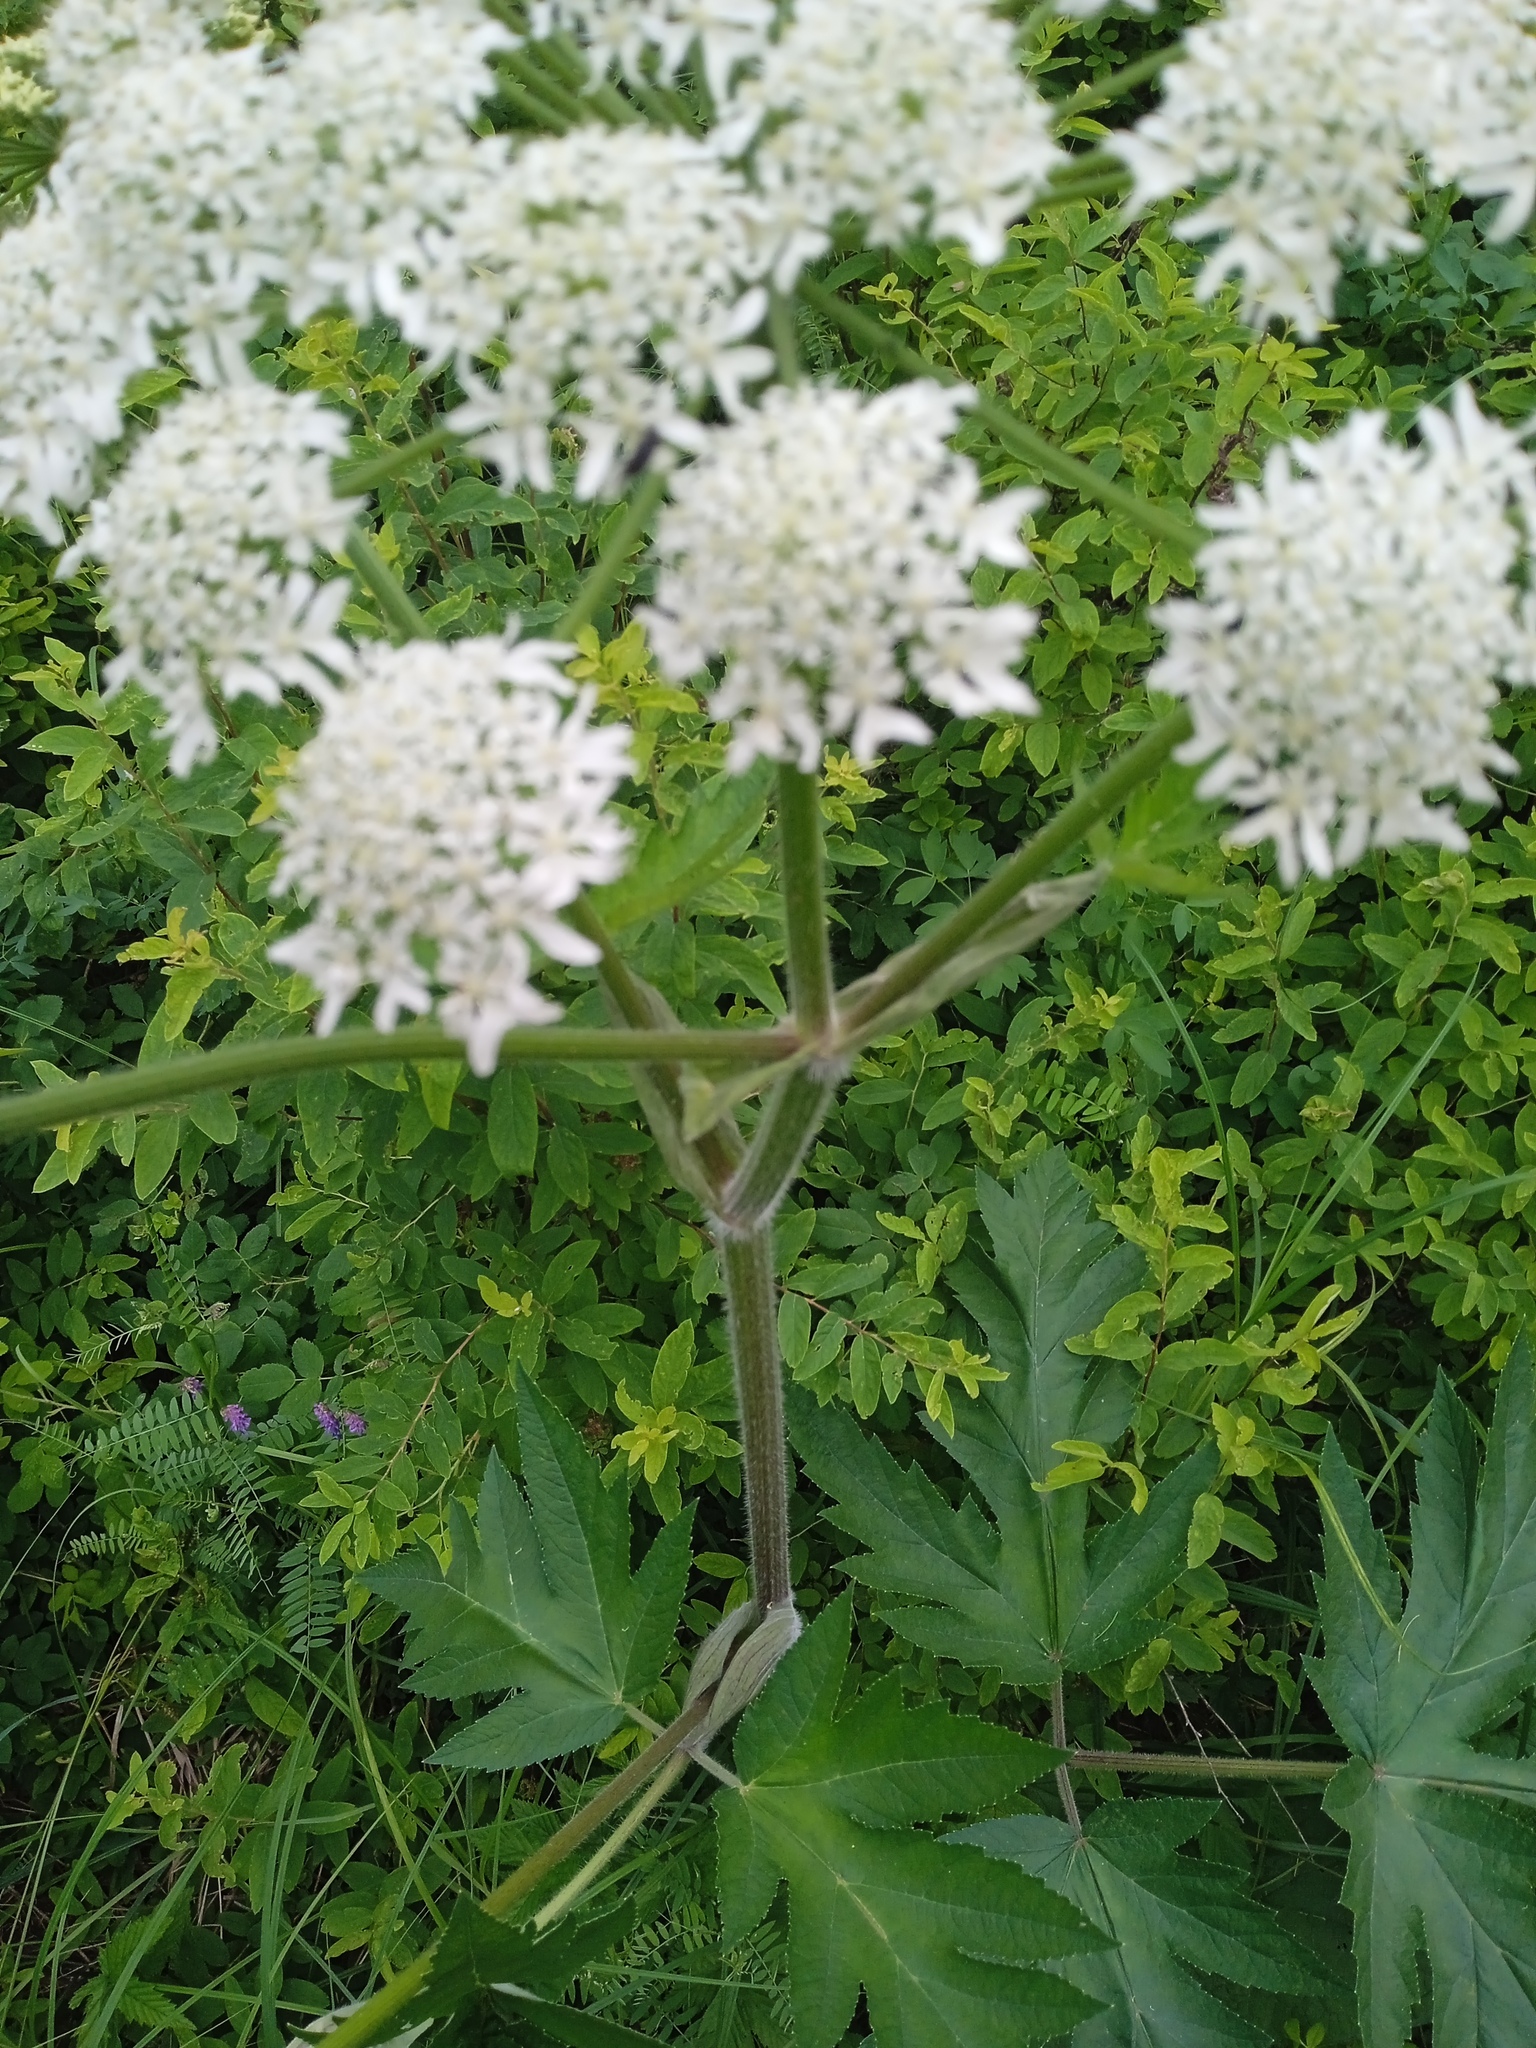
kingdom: Plantae
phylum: Tracheophyta
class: Magnoliopsida
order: Apiales
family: Apiaceae
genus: Heracleum
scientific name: Heracleum dissectum
